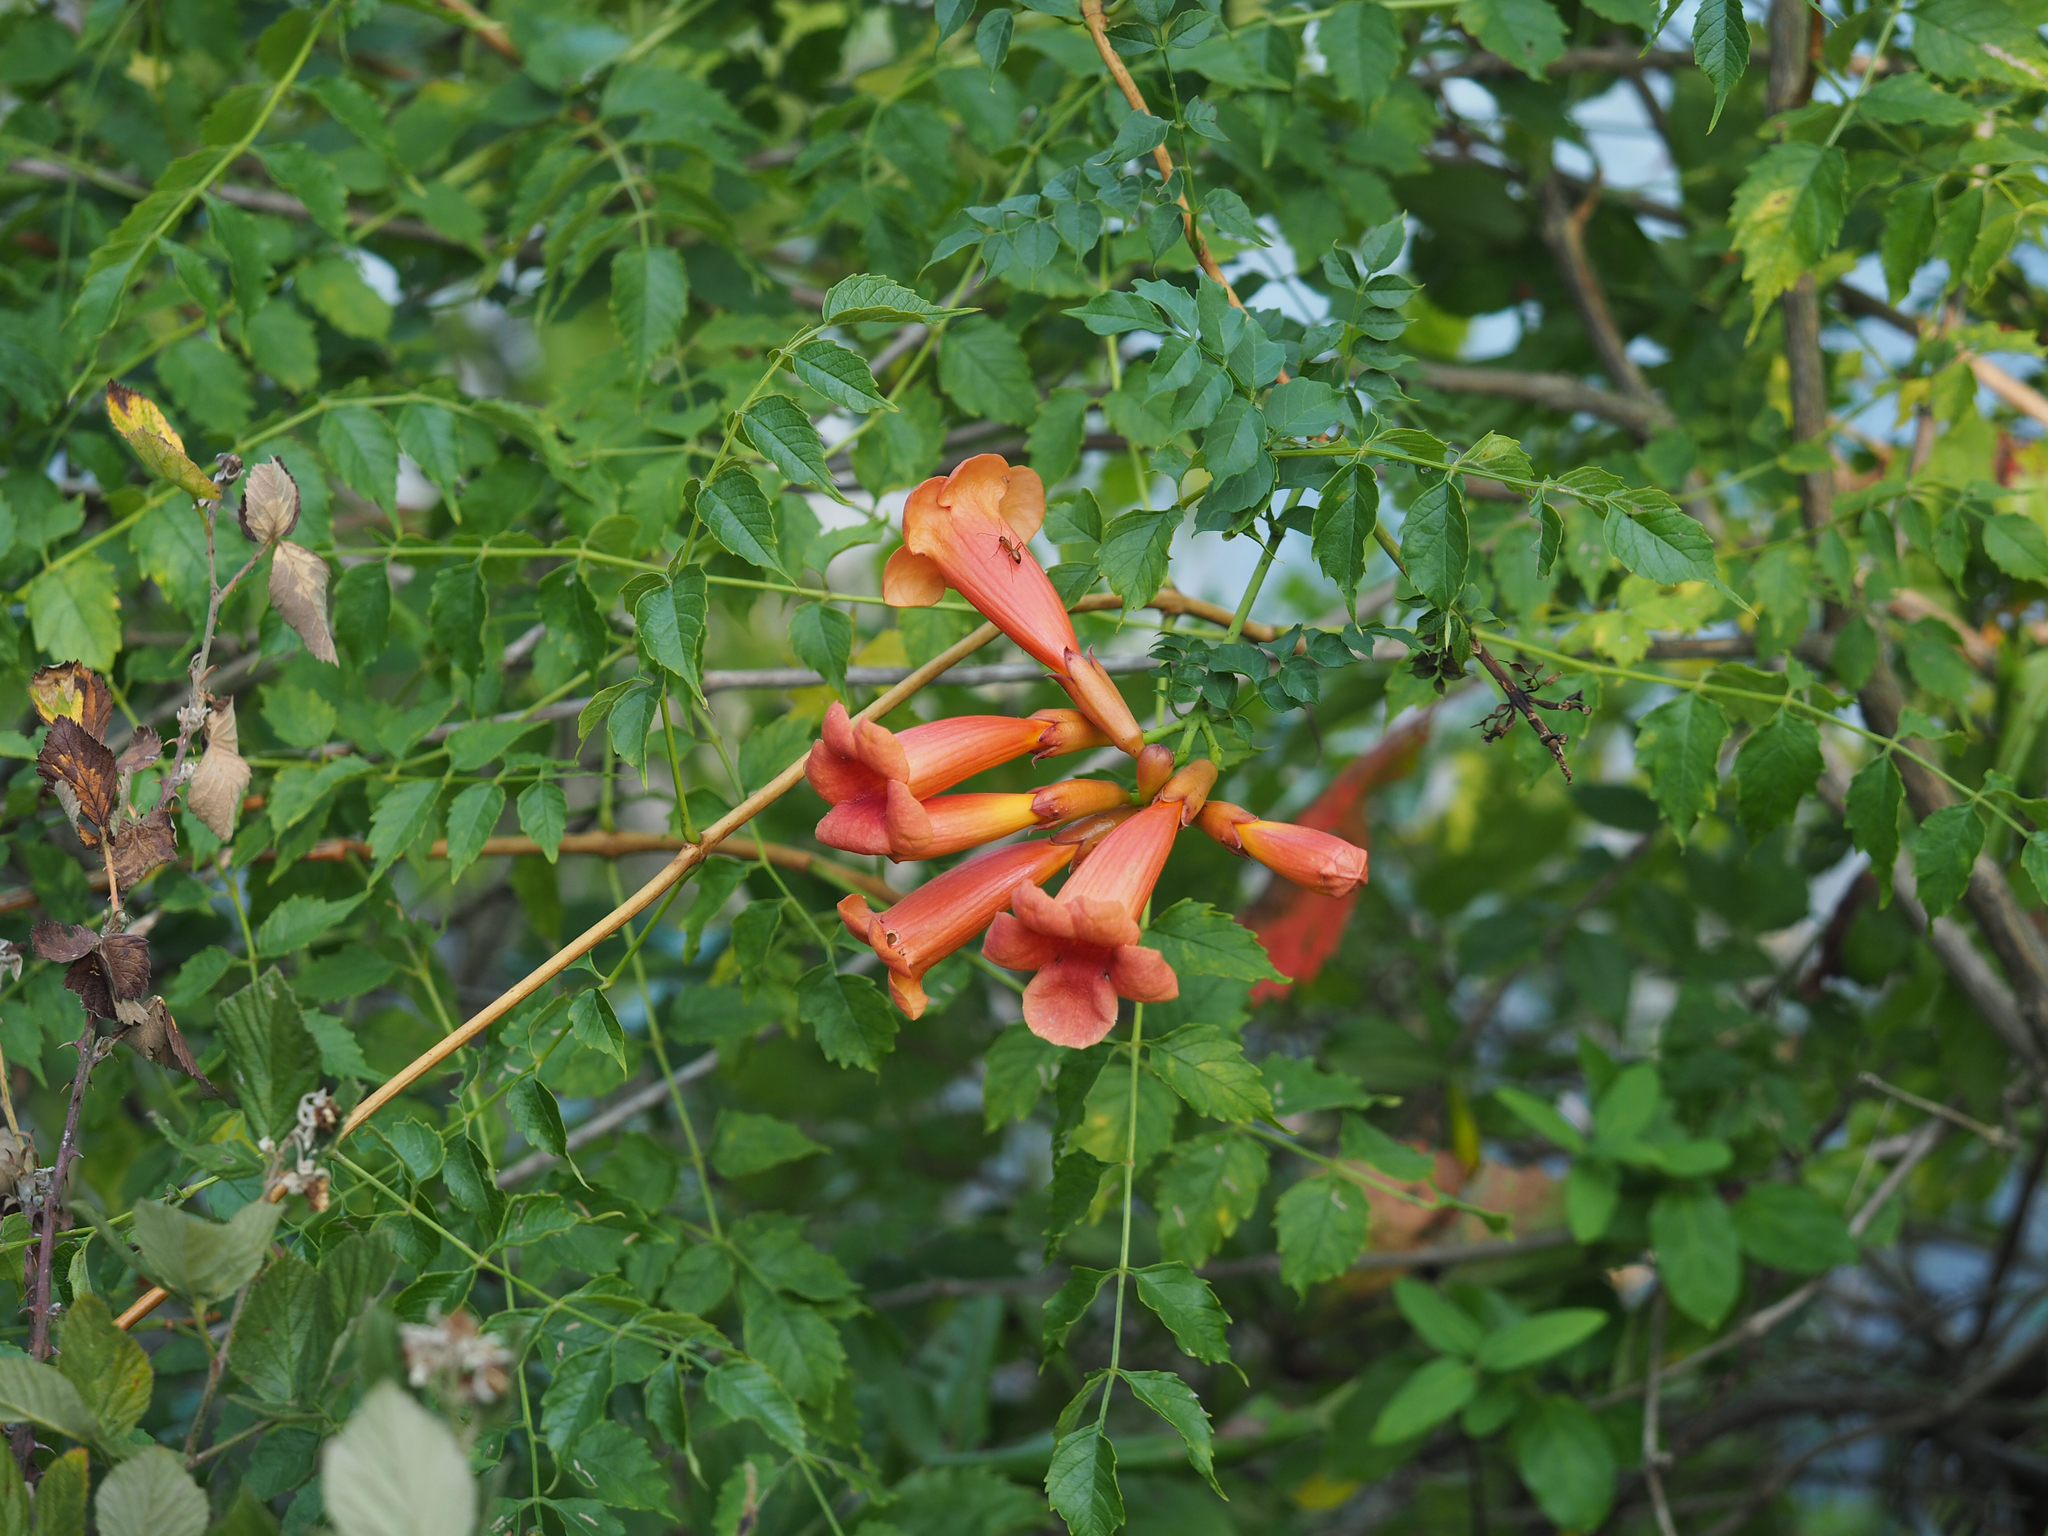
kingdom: Plantae
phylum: Tracheophyta
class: Magnoliopsida
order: Lamiales
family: Bignoniaceae
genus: Campsis
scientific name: Campsis radicans
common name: Trumpet-creeper
